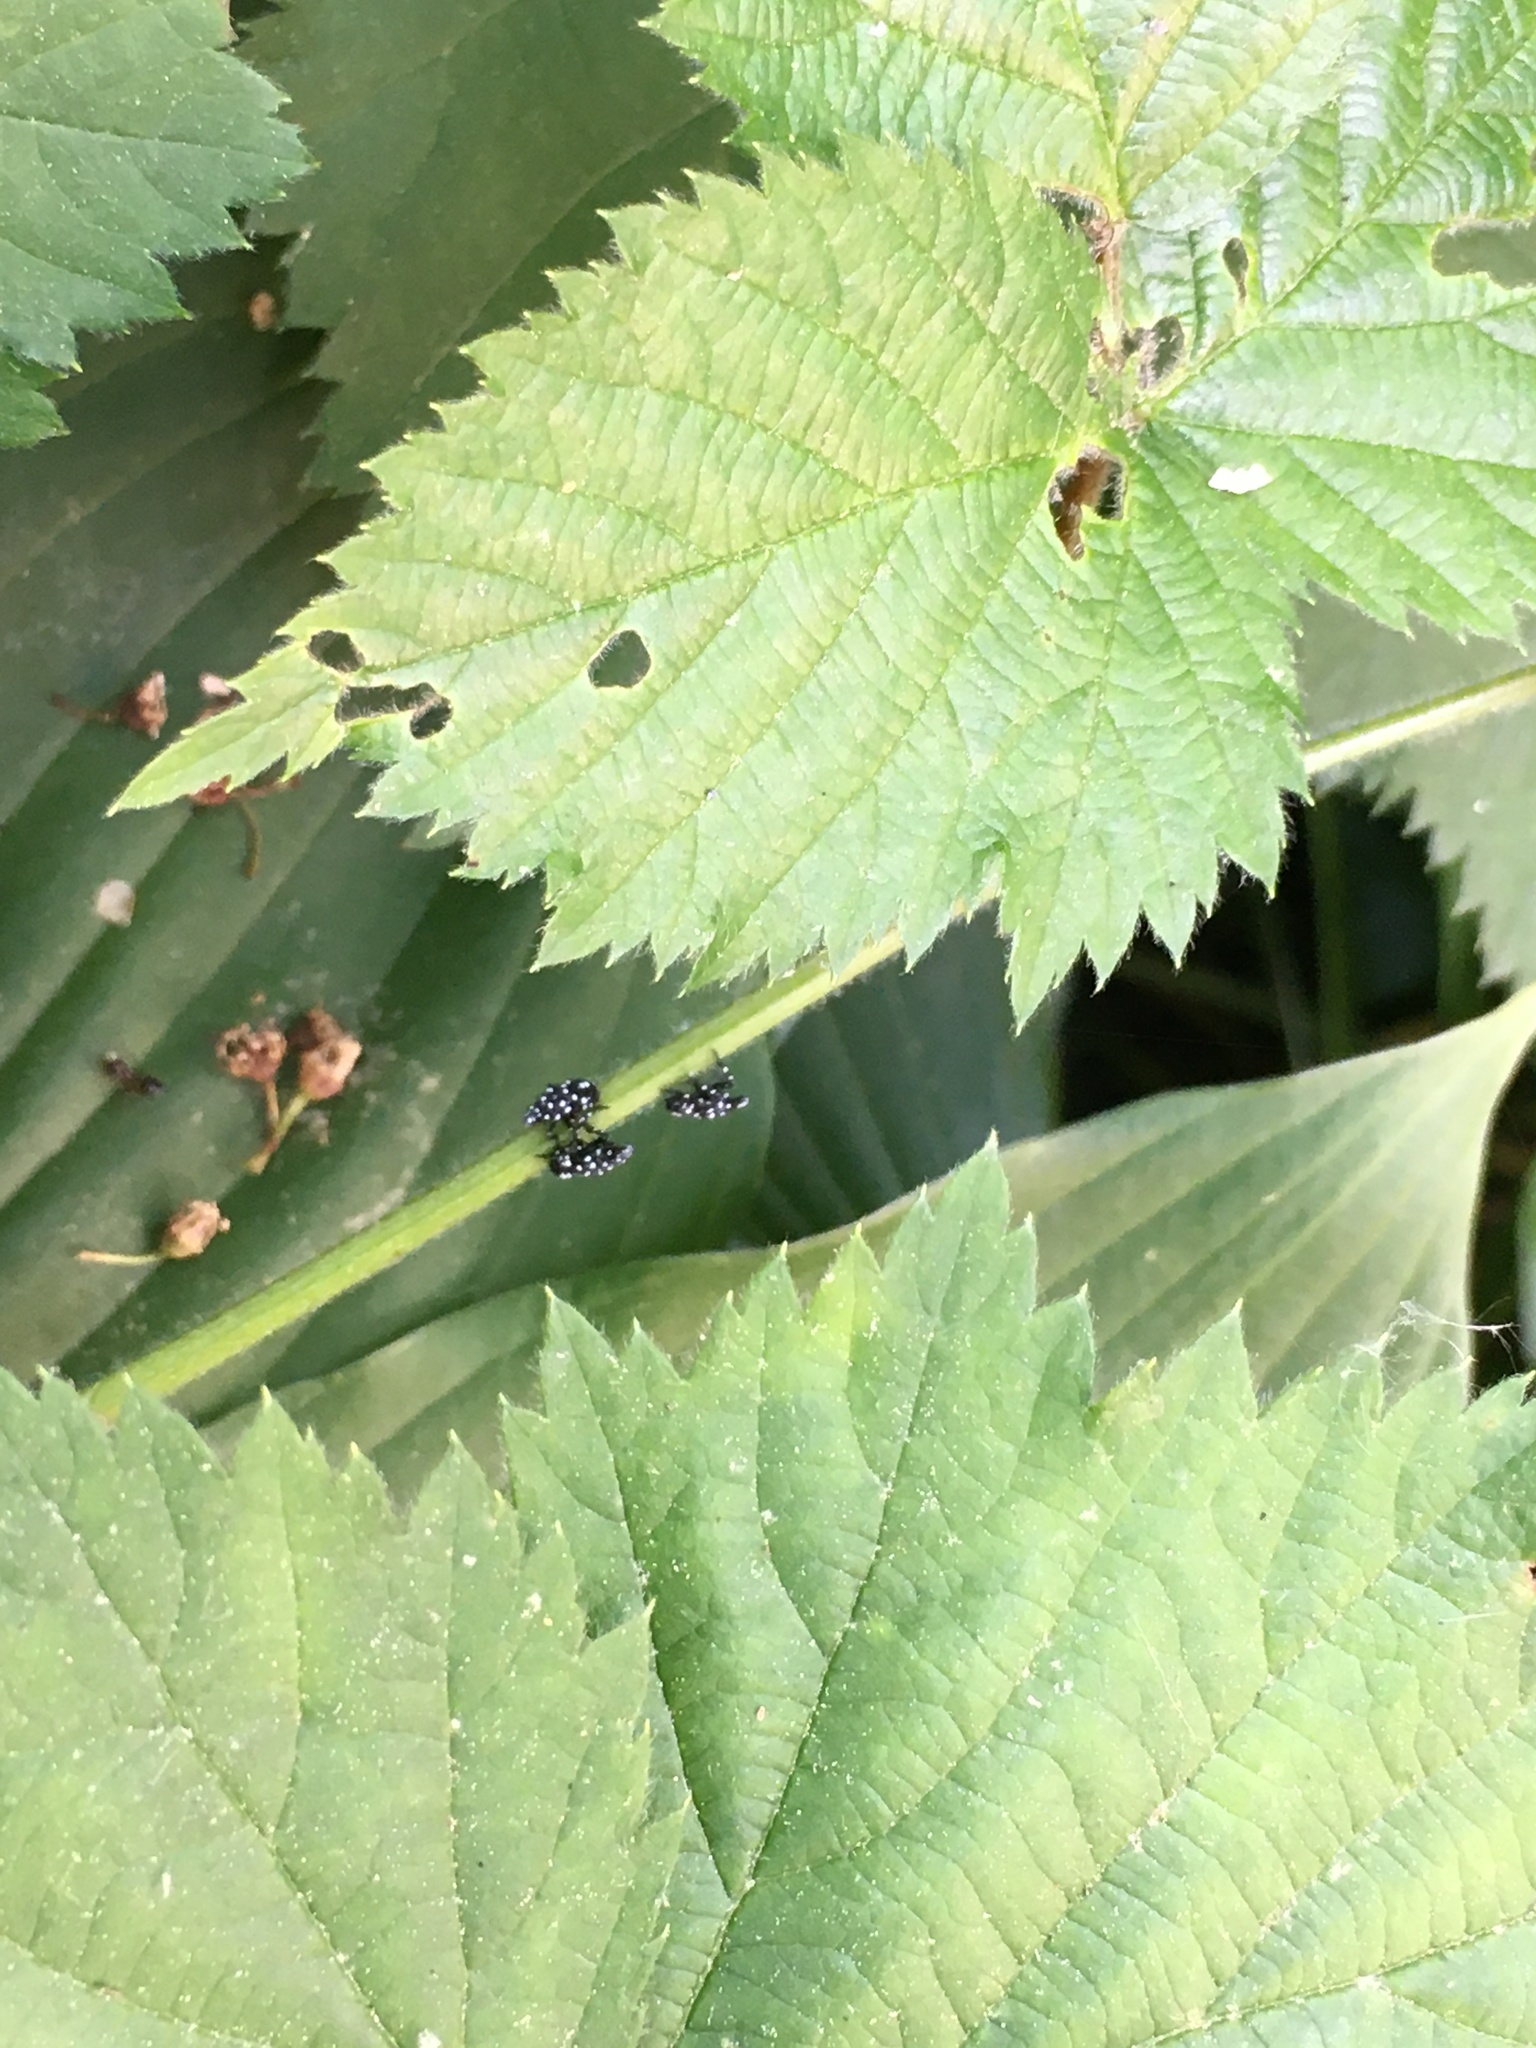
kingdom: Animalia
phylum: Arthropoda
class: Insecta
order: Hemiptera
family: Fulgoridae
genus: Lycorma
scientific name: Lycorma delicatula
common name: Spotted lanternfly
